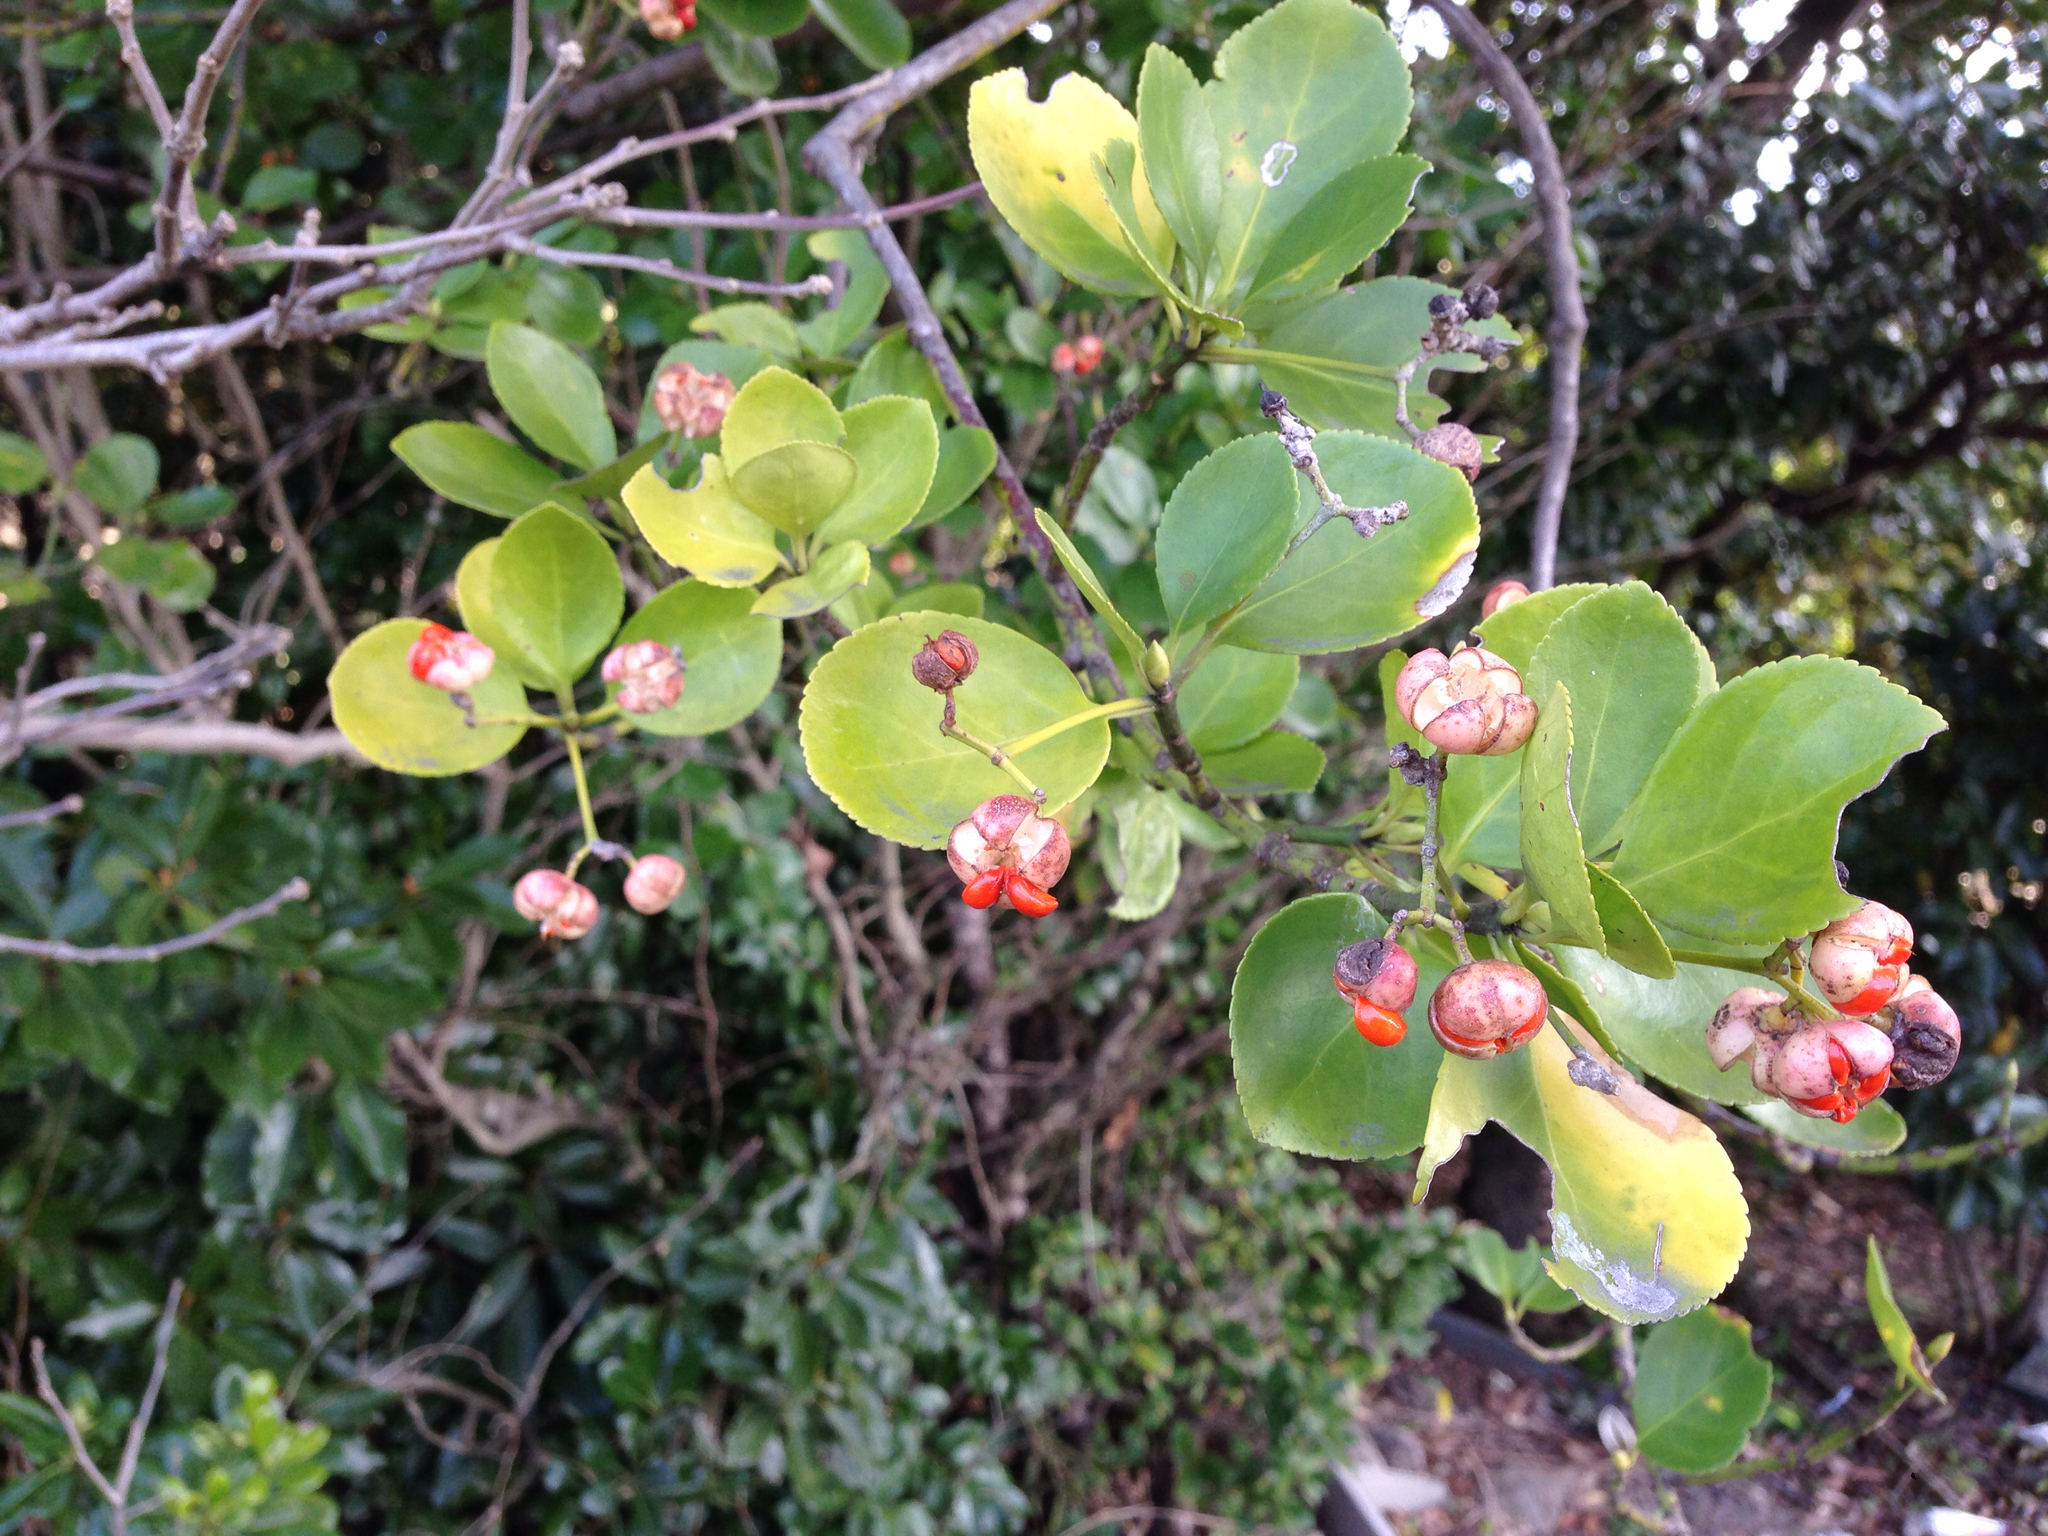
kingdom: Plantae
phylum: Tracheophyta
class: Magnoliopsida
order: Celastrales
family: Celastraceae
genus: Euonymus
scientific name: Euonymus japonicus
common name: Japanese spindletree
